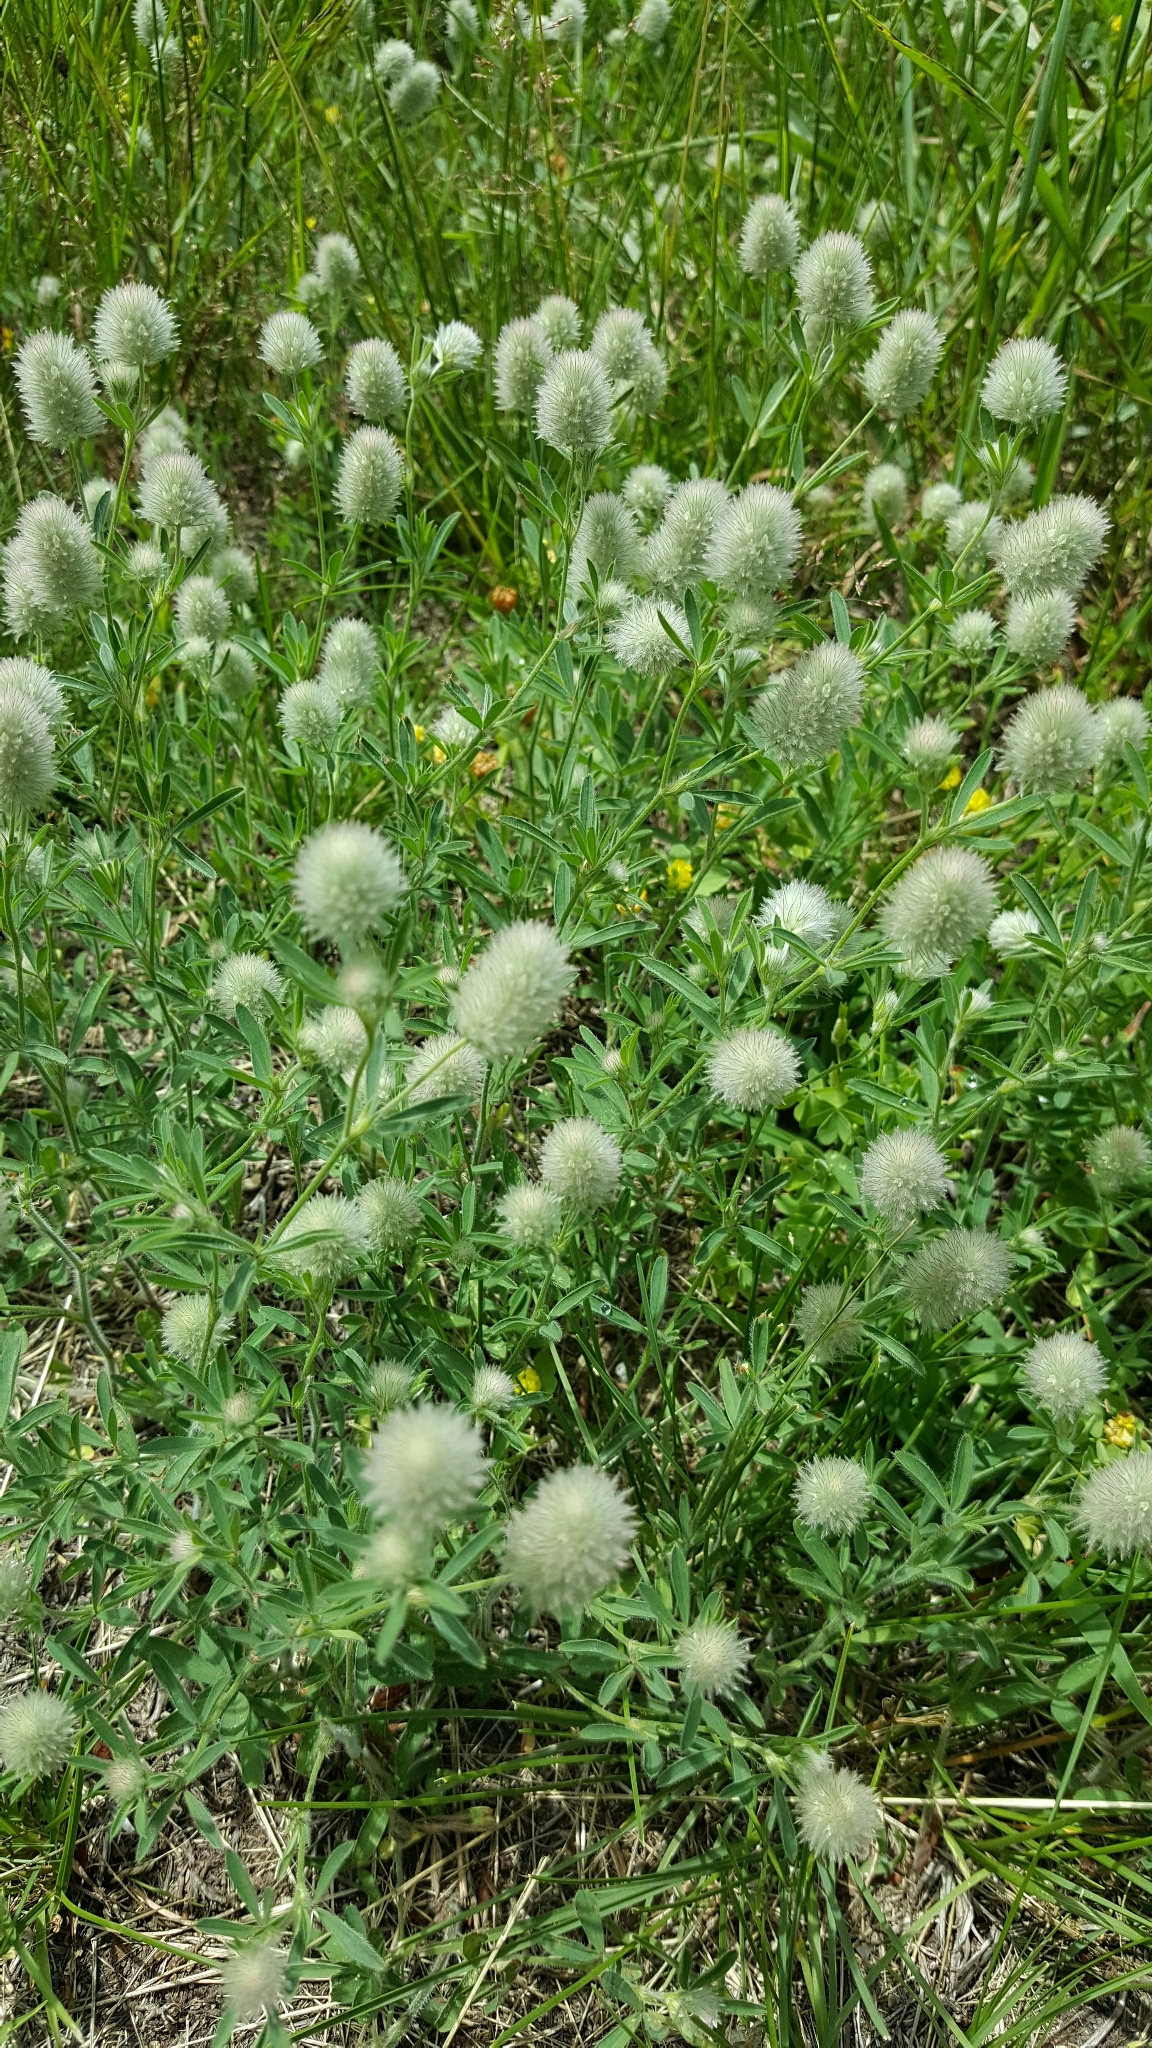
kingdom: Plantae
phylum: Tracheophyta
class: Magnoliopsida
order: Fabales
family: Fabaceae
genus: Trifolium
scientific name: Trifolium arvense
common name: Hare's-foot clover
